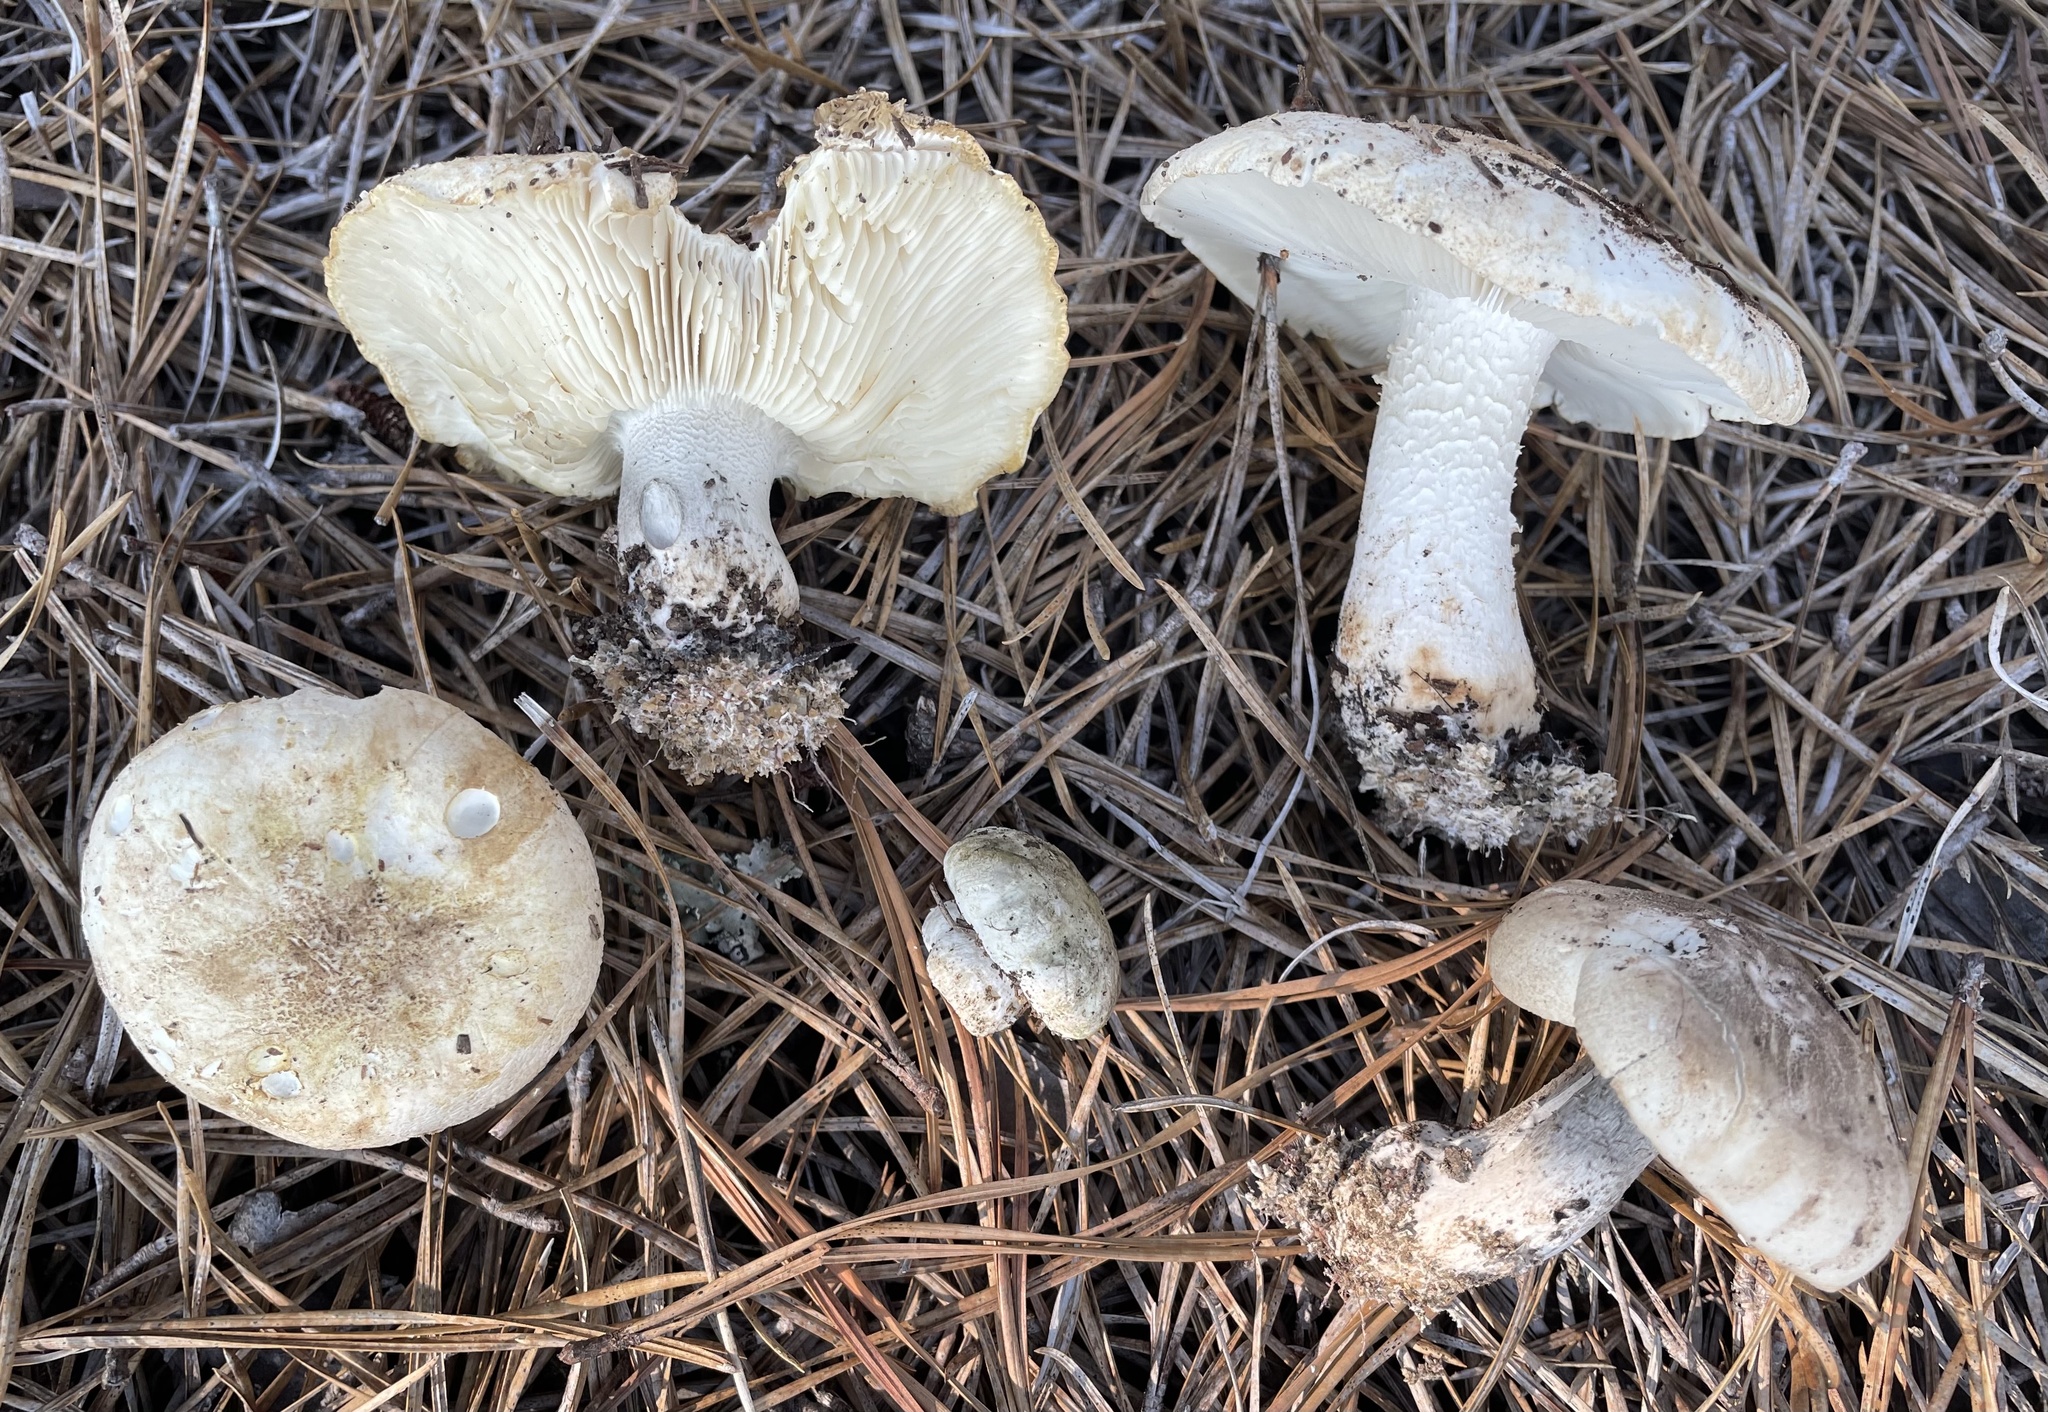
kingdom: Fungi
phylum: Basidiomycota
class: Agaricomycetes
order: Agaricales
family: Tricholomataceae
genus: Tricholoma
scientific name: Tricholoma apium
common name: Scented knight
